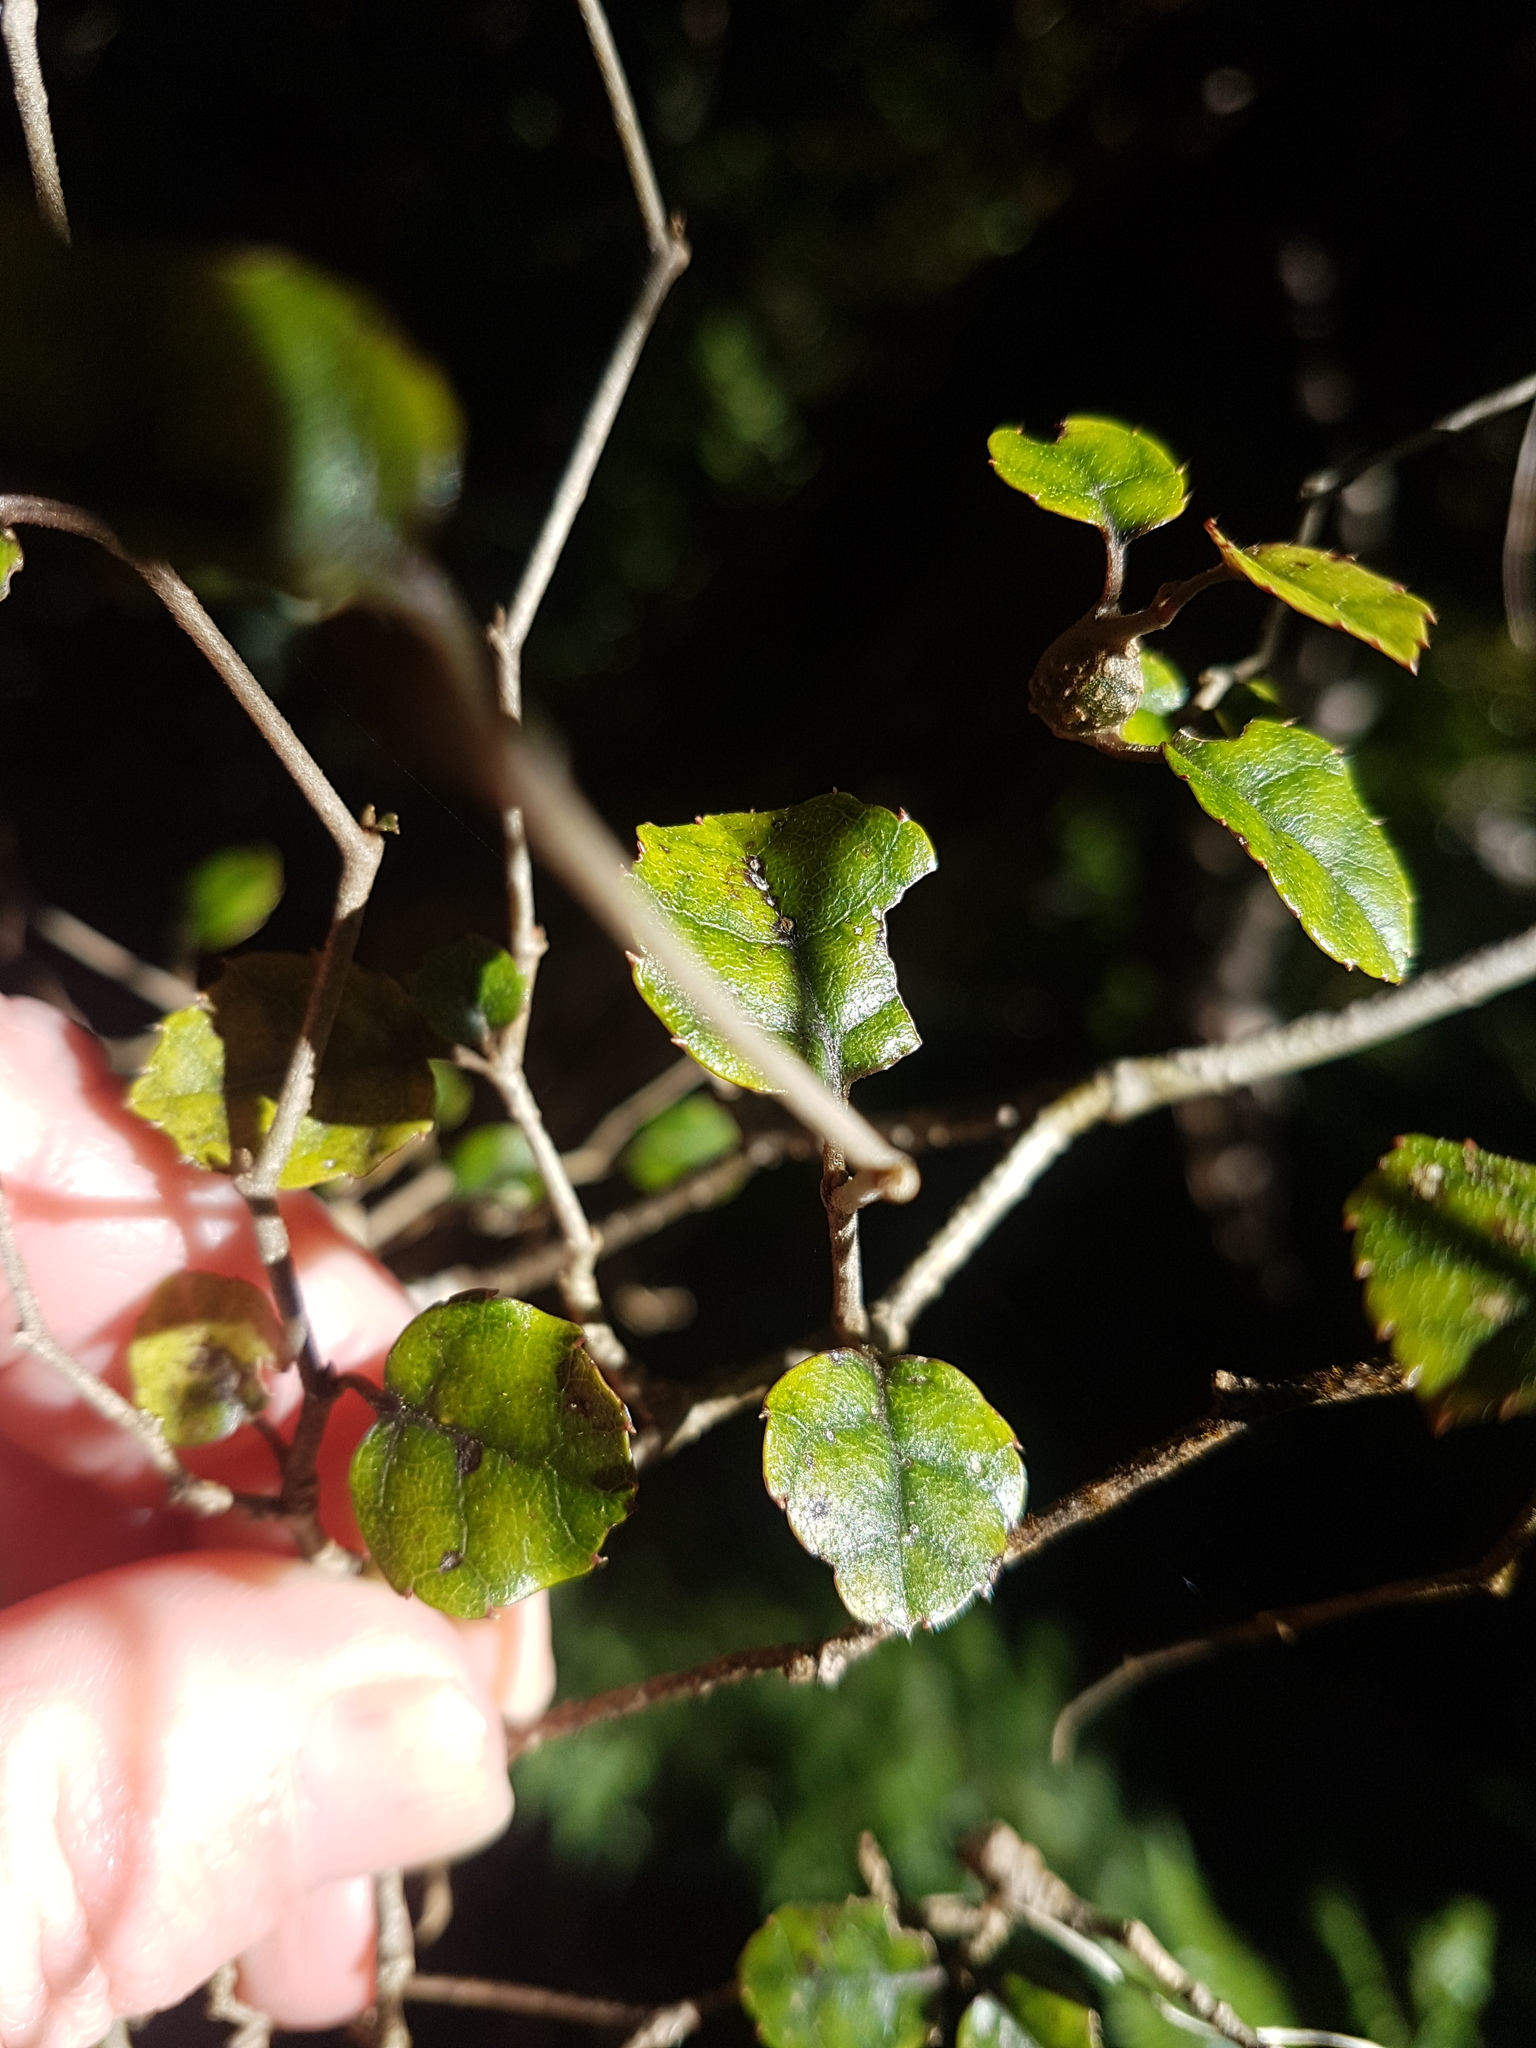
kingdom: Plantae
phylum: Tracheophyta
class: Magnoliopsida
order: Asterales
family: Rousseaceae
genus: Carpodetus
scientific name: Carpodetus serratus
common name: White mapau
